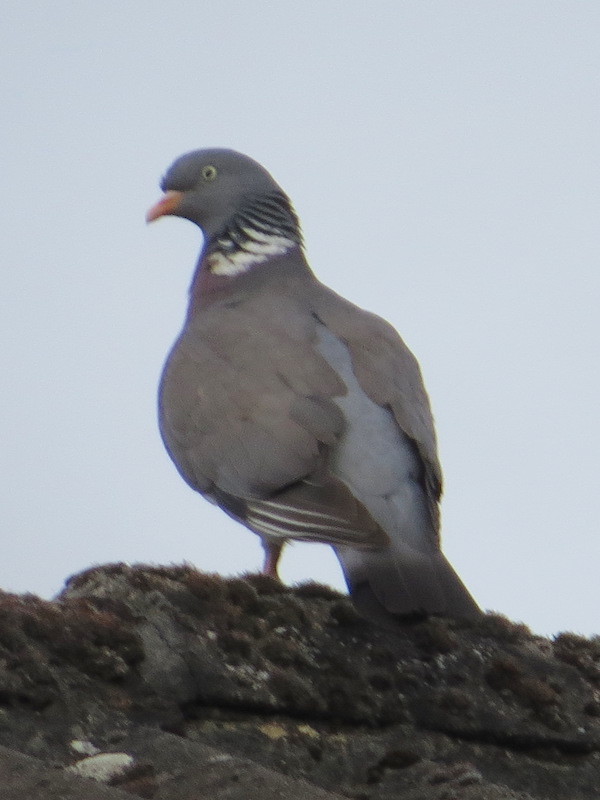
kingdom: Animalia
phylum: Chordata
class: Aves
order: Columbiformes
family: Columbidae
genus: Columba
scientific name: Columba palumbus
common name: Common wood pigeon
